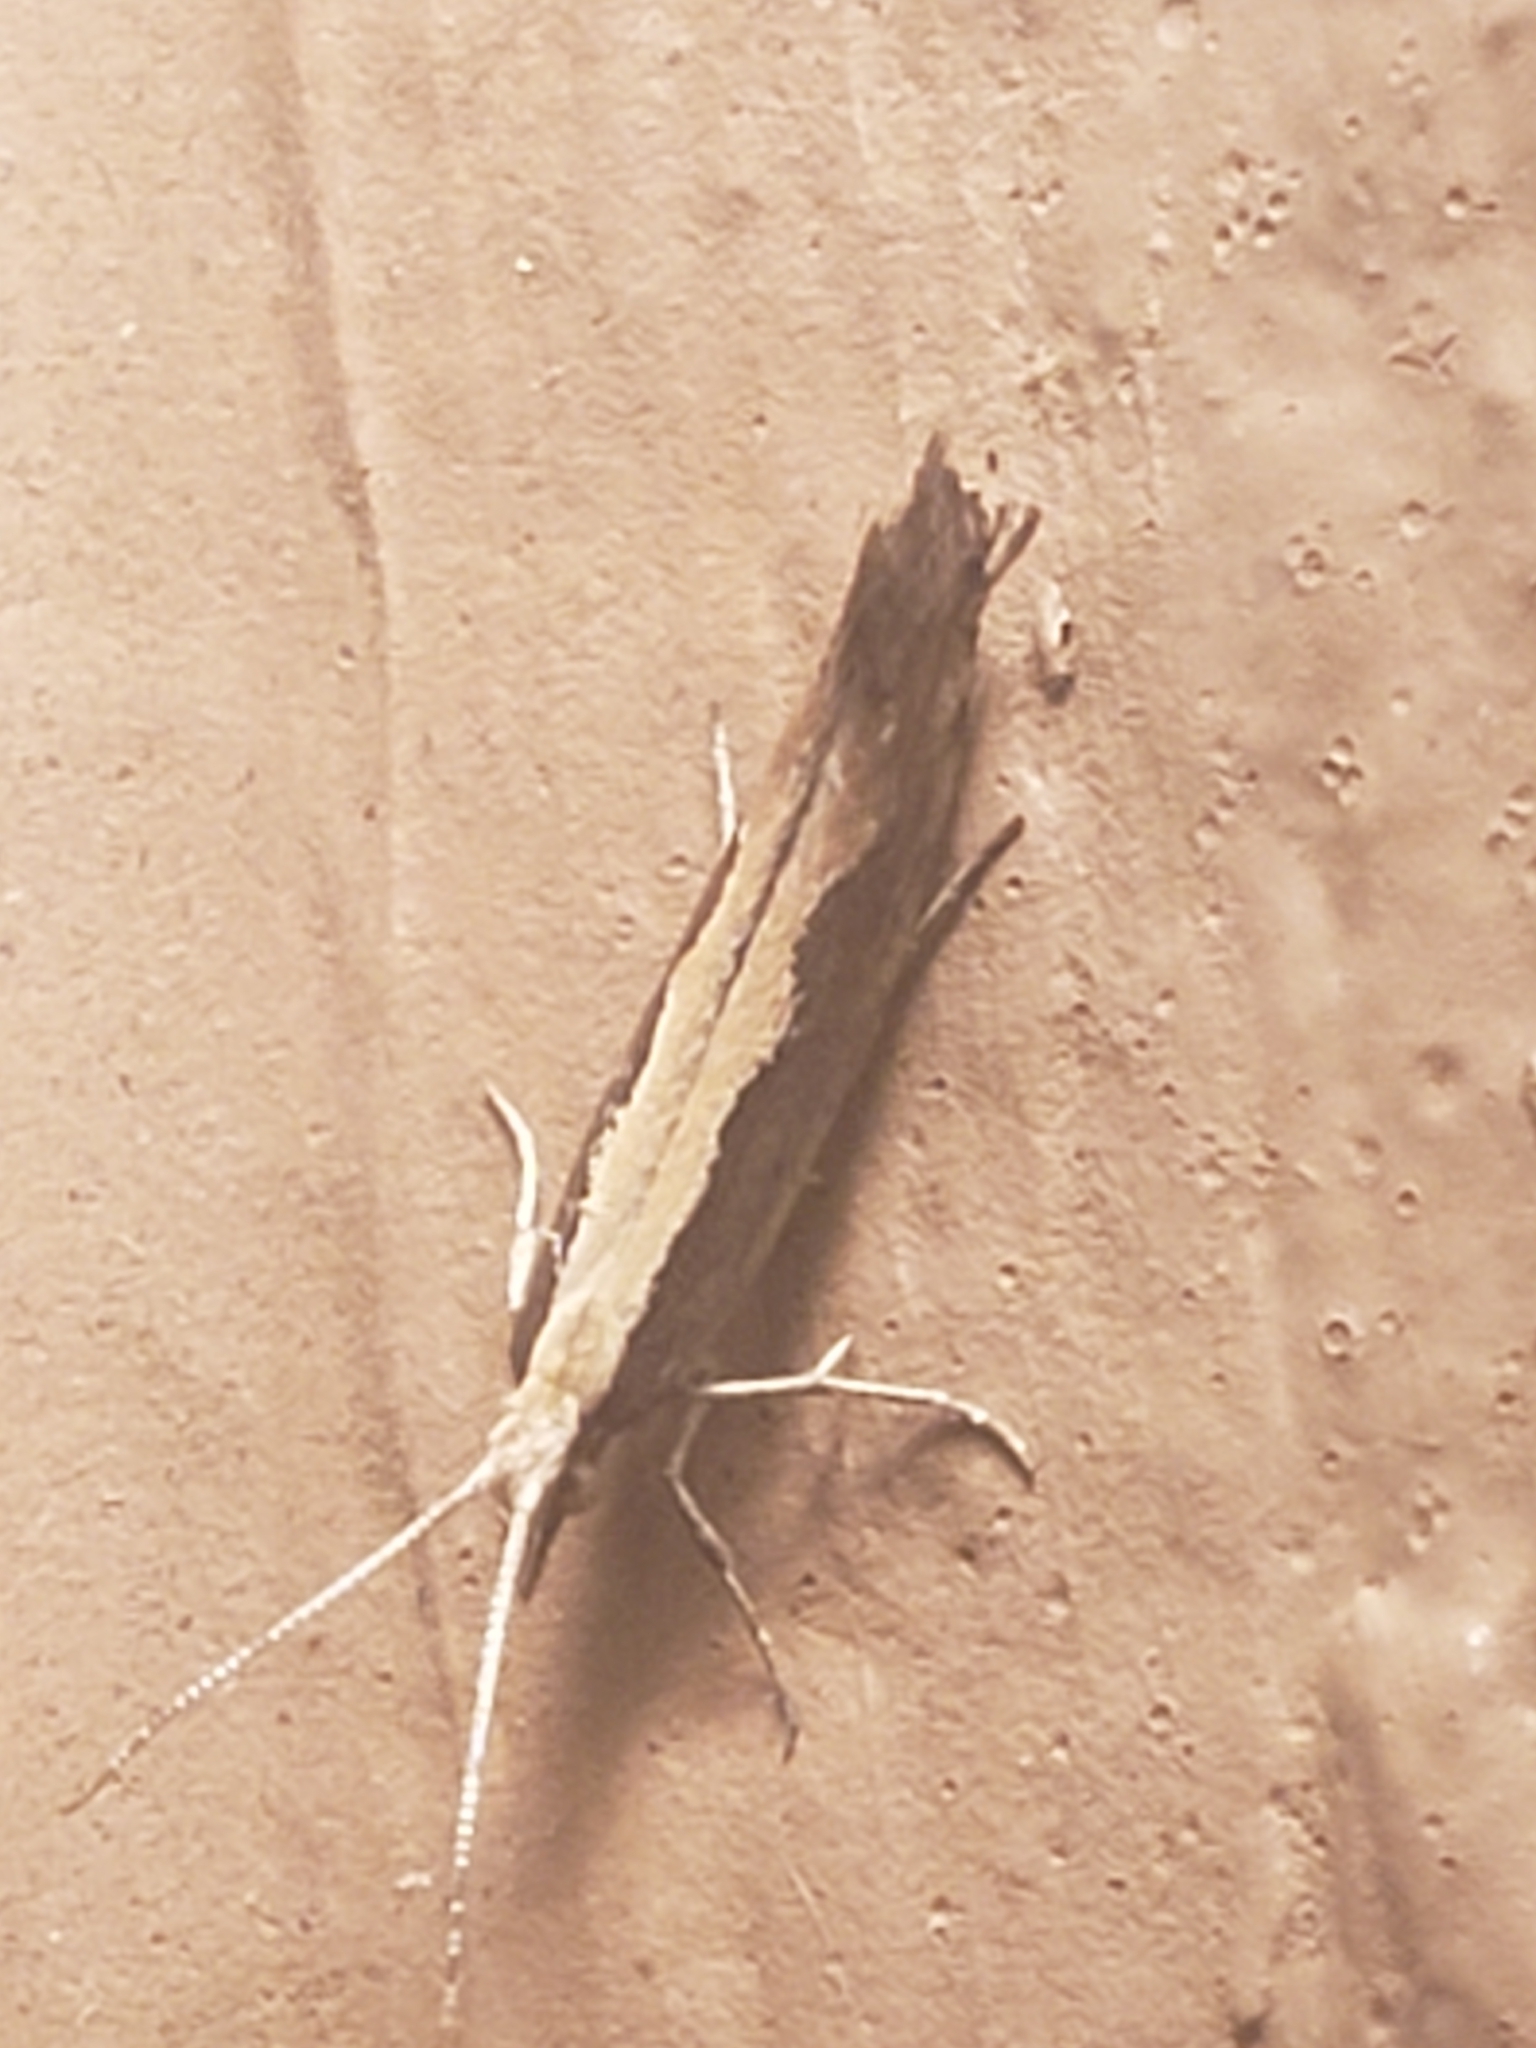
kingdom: Animalia
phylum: Arthropoda
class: Insecta
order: Lepidoptera
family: Plutellidae
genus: Plutella
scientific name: Plutella xylostella
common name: Diamond-back moth
